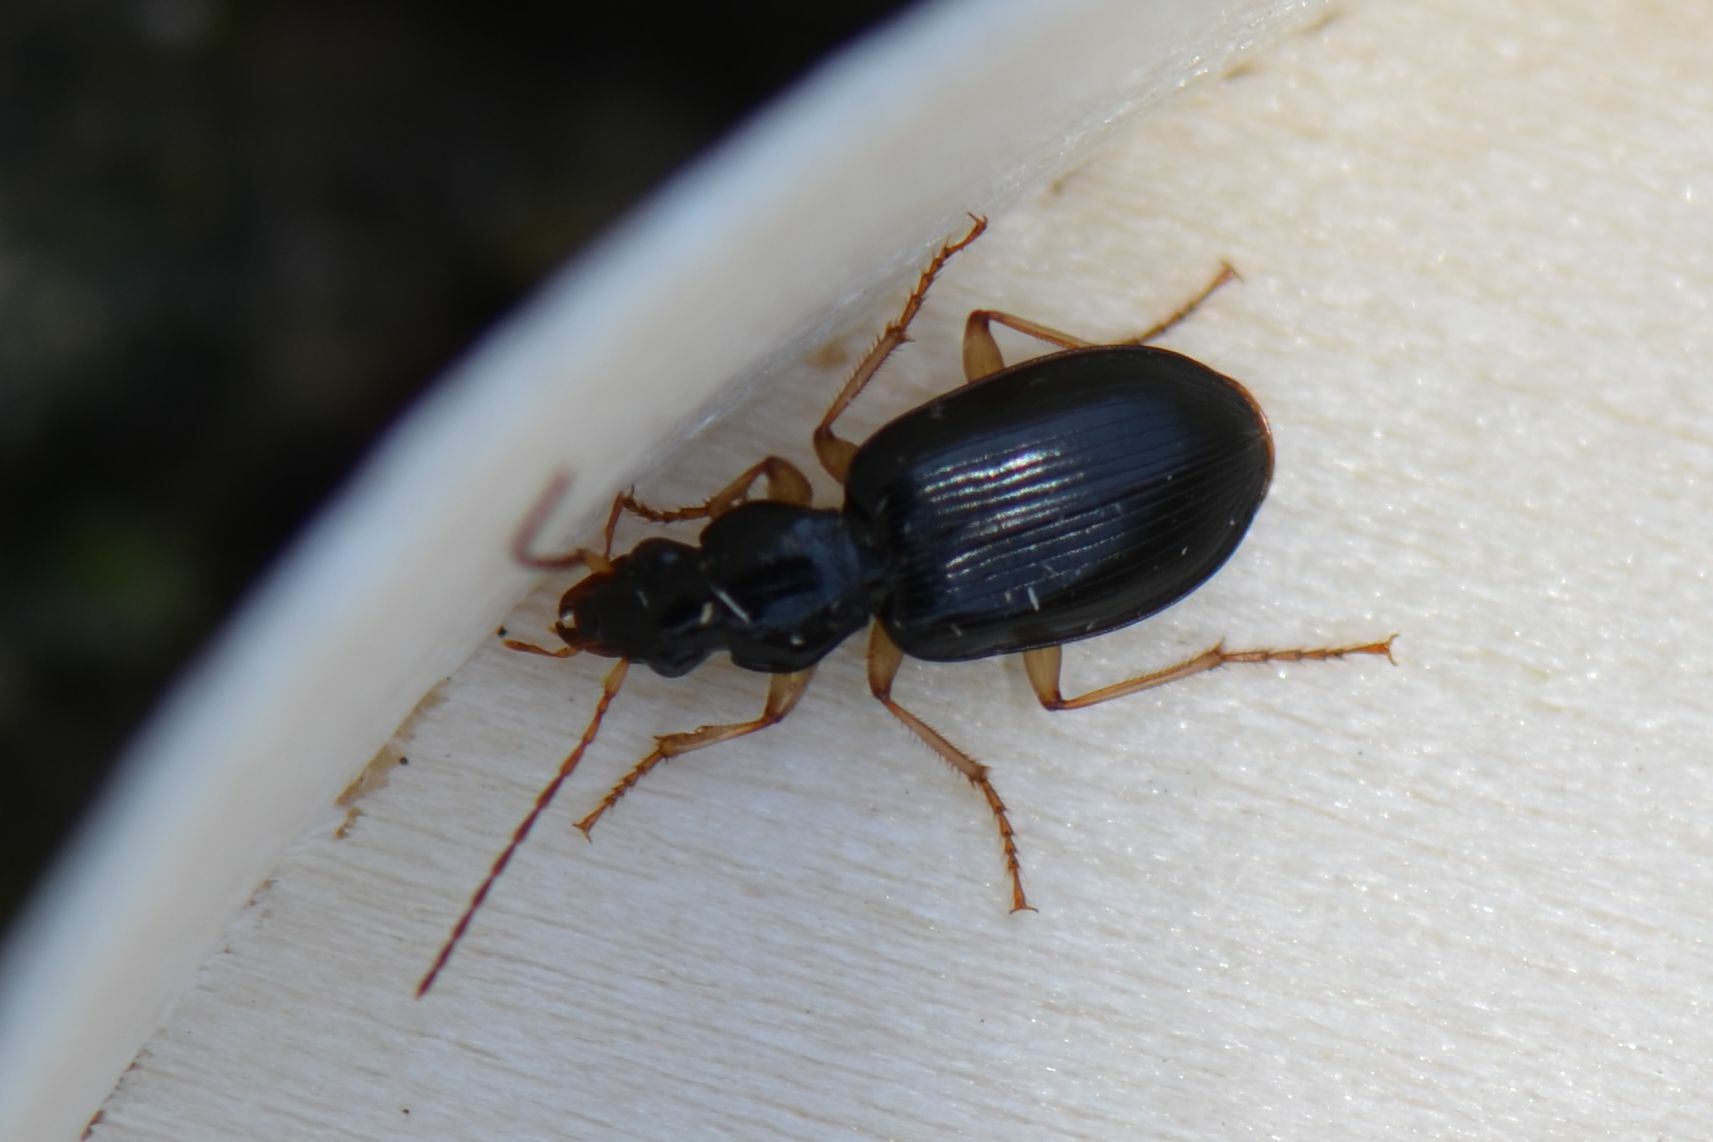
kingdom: Animalia
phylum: Arthropoda
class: Insecta
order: Coleoptera
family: Carabidae
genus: Paranchus
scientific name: Paranchus albipes
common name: White-legged harp ground beetle
